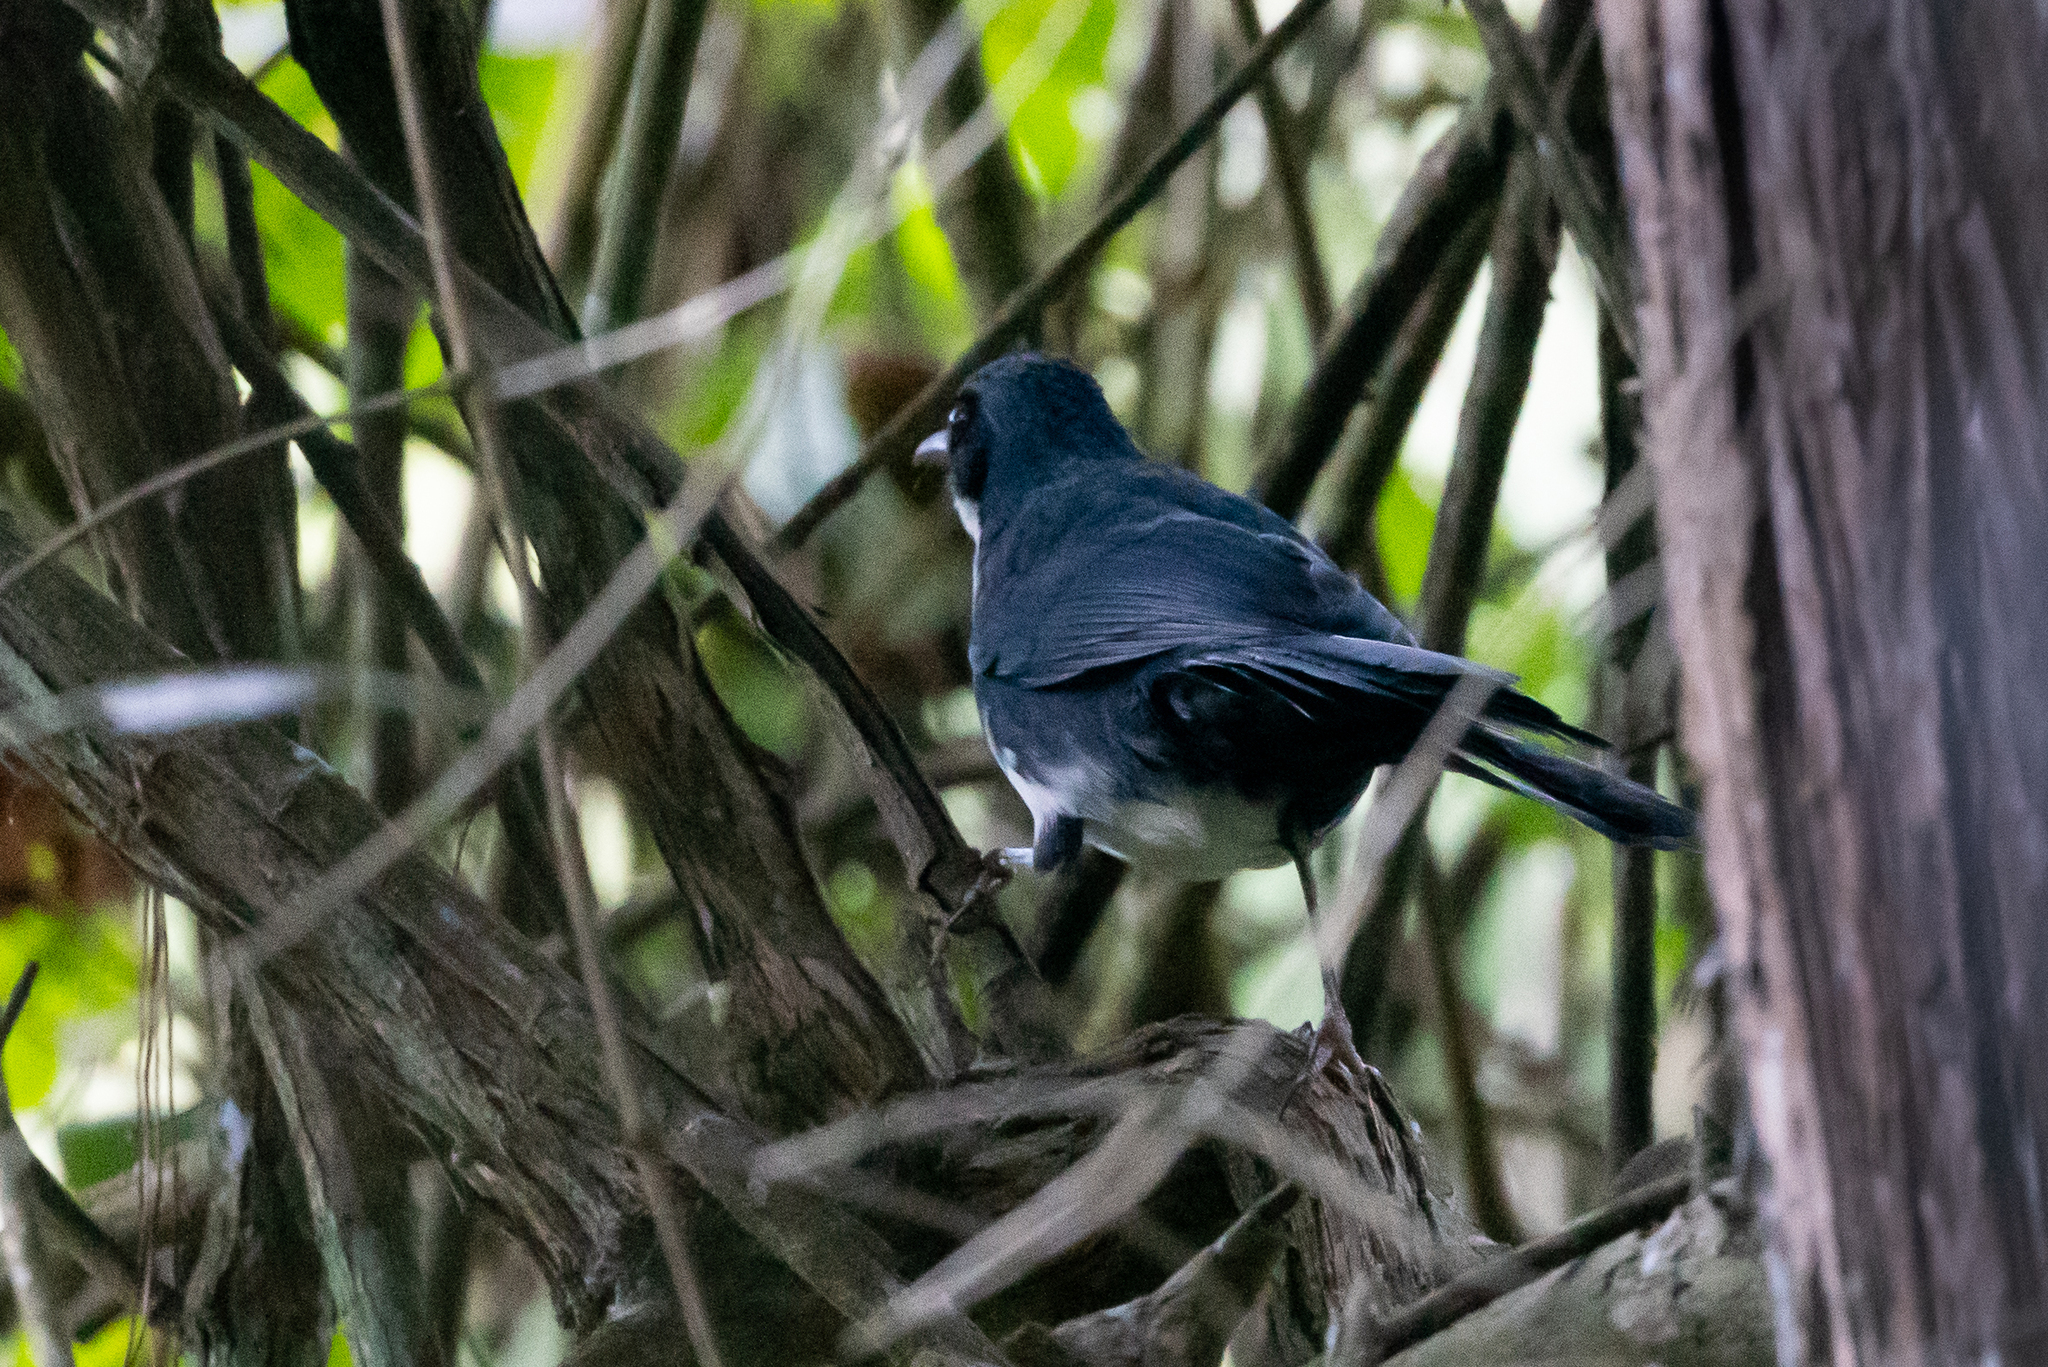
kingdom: Animalia
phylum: Chordata
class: Aves
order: Passeriformes
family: Mimidae
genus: Melanotis
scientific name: Melanotis hypoleucus
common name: Blue-and-white mockingbird
